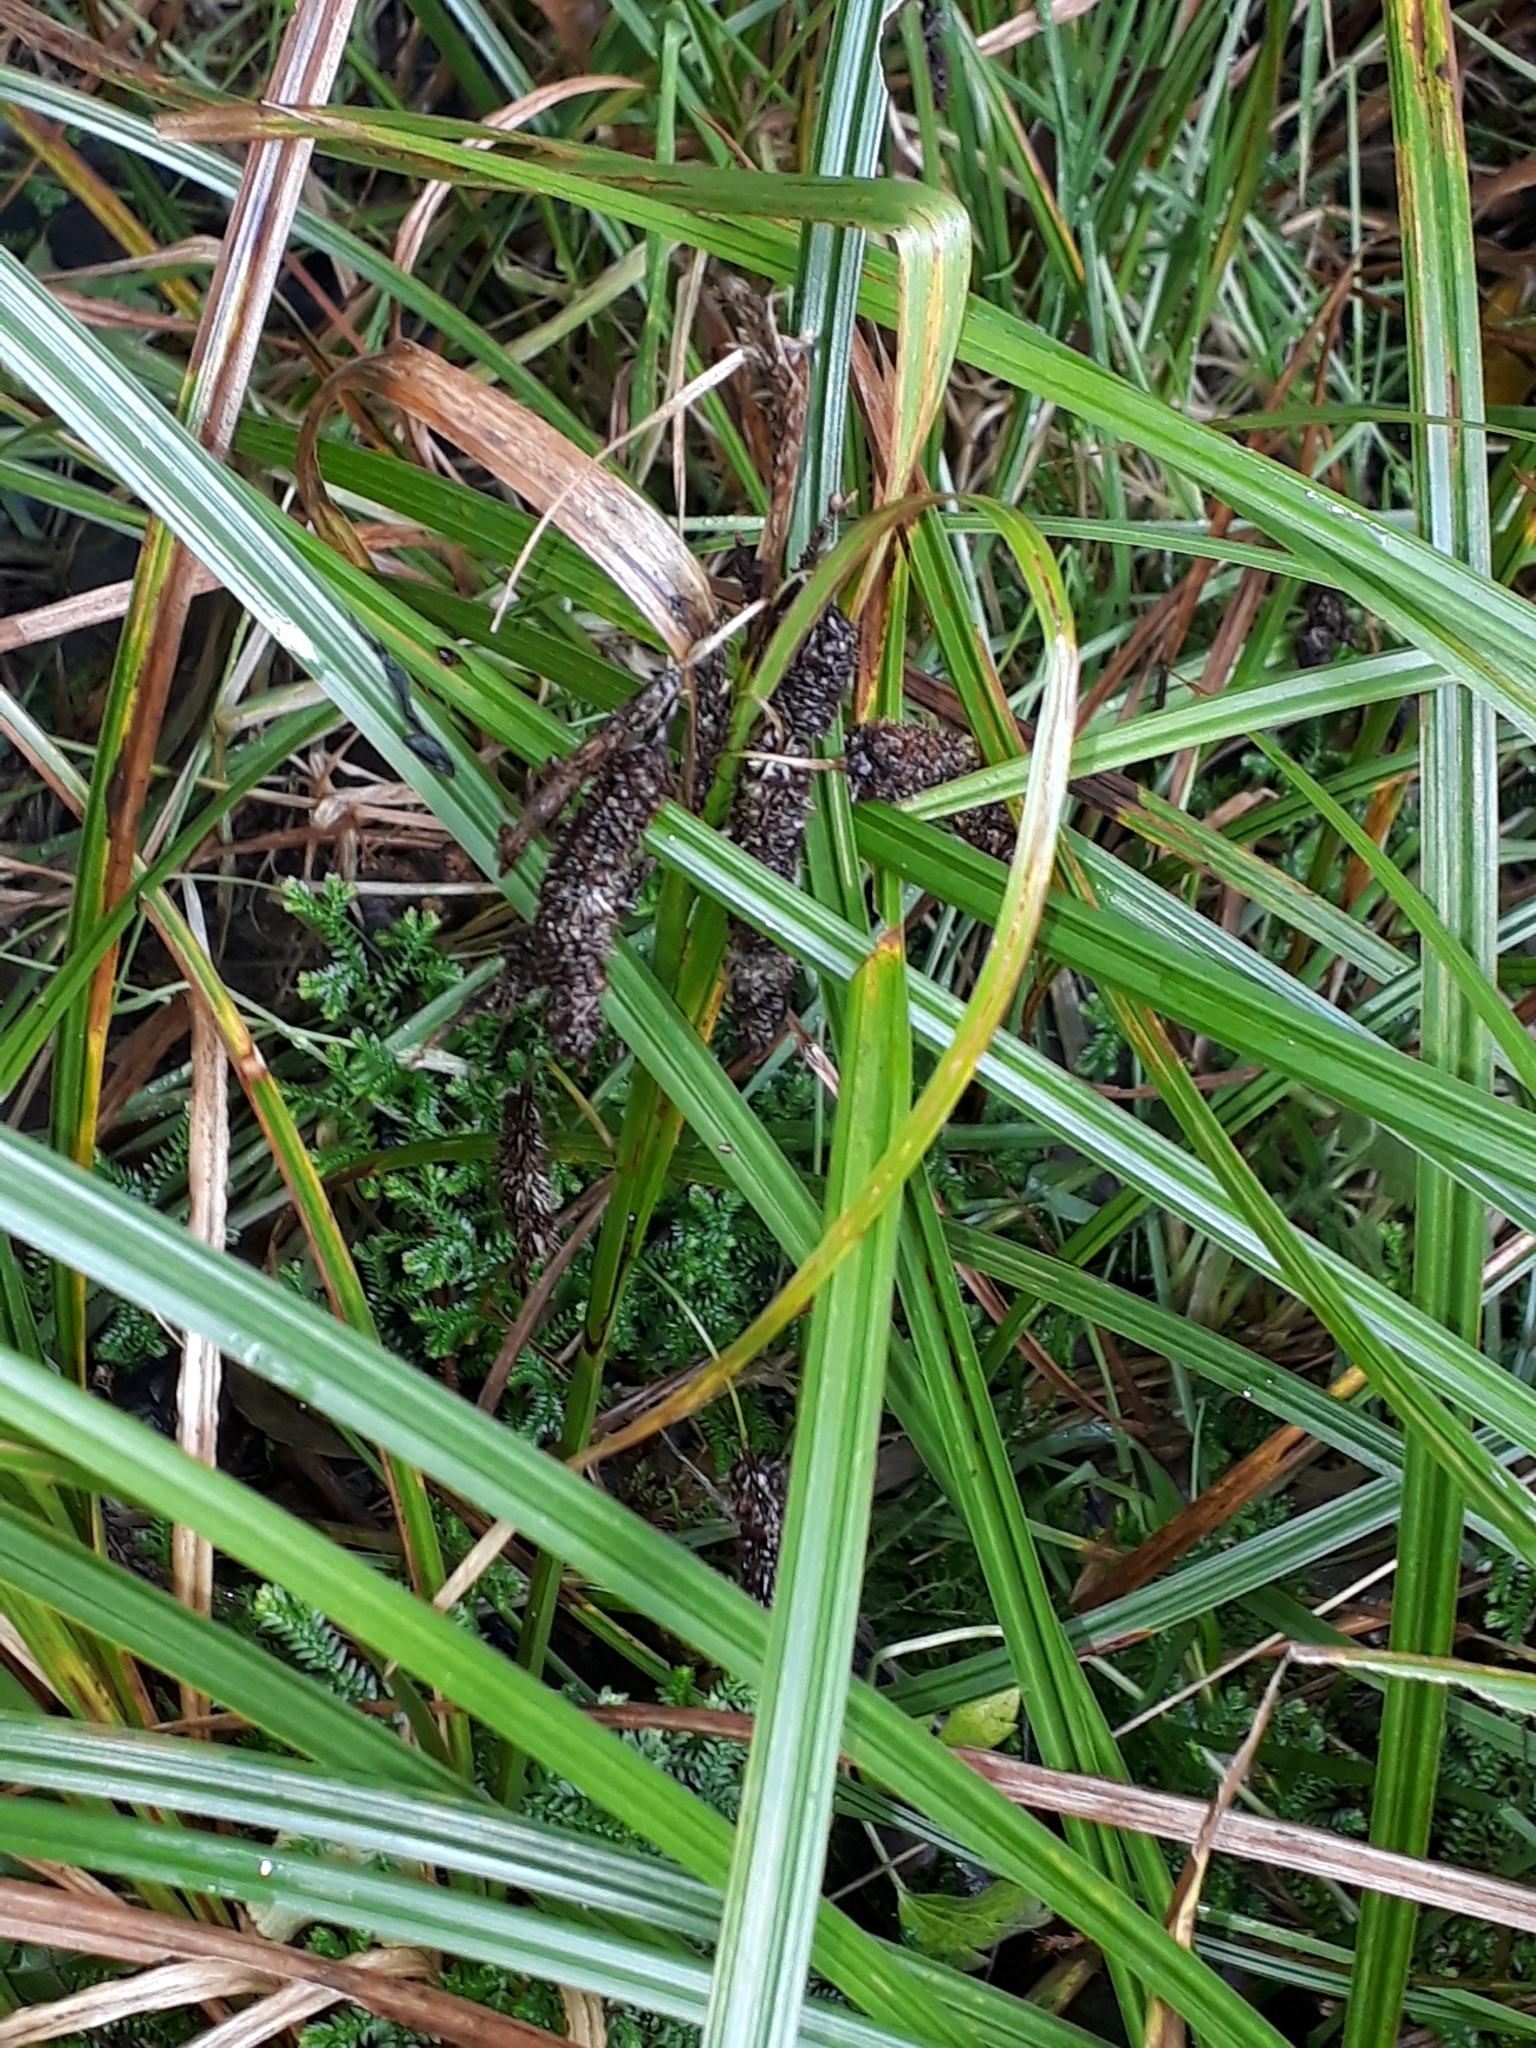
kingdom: Plantae
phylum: Tracheophyta
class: Liliopsida
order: Poales
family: Cyperaceae
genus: Carex
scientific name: Carex lessoniana
